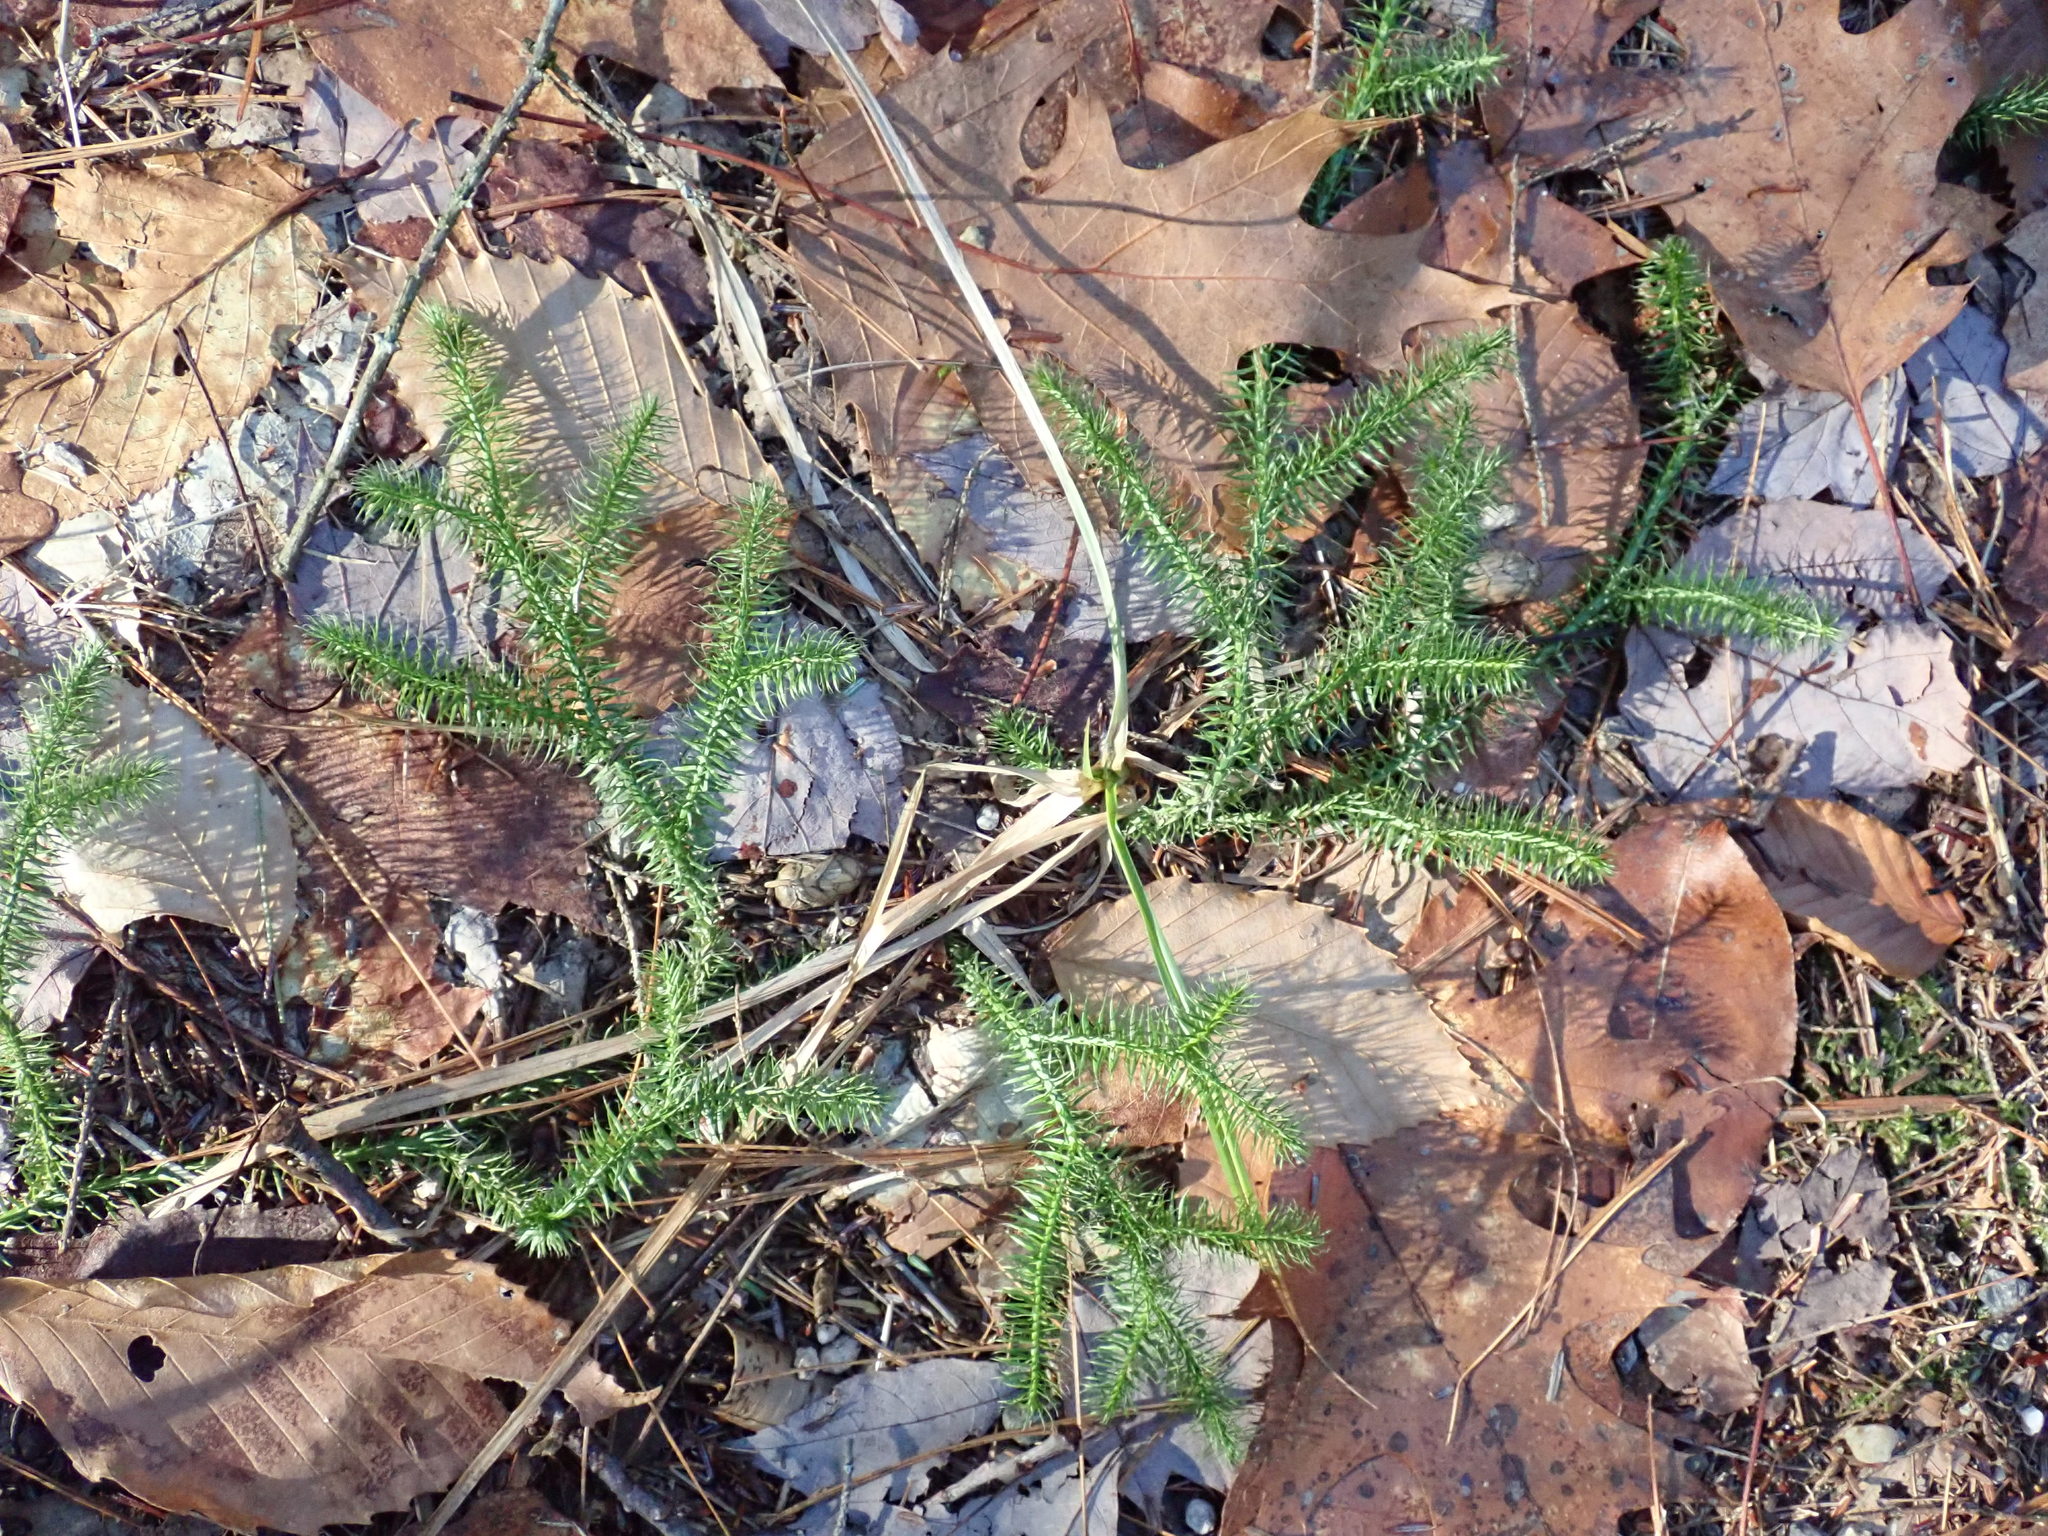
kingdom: Plantae
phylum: Tracheophyta
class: Lycopodiopsida
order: Lycopodiales
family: Lycopodiaceae
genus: Lycopodium
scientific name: Lycopodium clavatum
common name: Stag's-horn clubmoss
